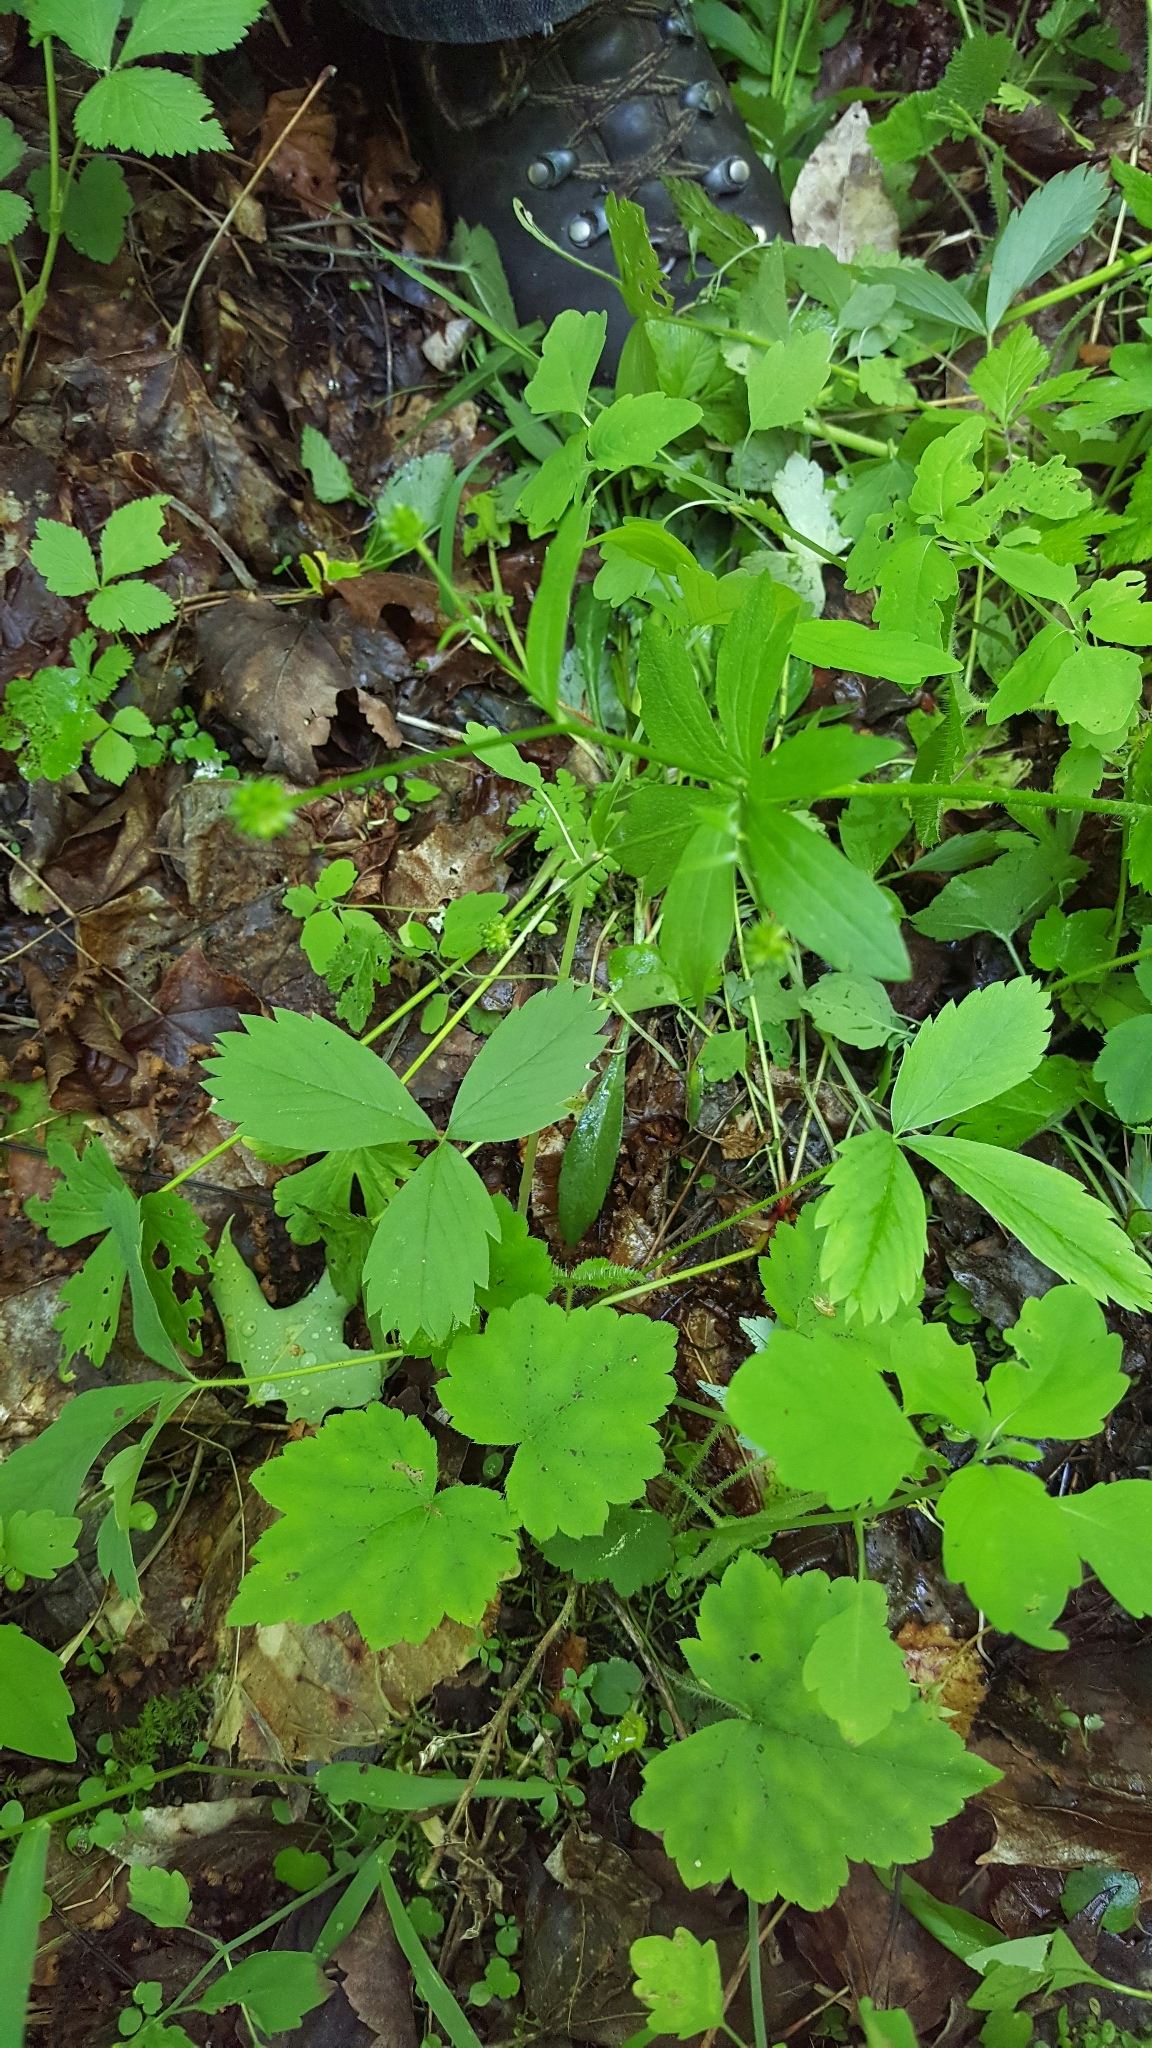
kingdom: Plantae
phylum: Tracheophyta
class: Magnoliopsida
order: Ranunculales
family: Ranunculaceae
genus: Ranunculus
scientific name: Ranunculus recurvatus
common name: Blisterwort
